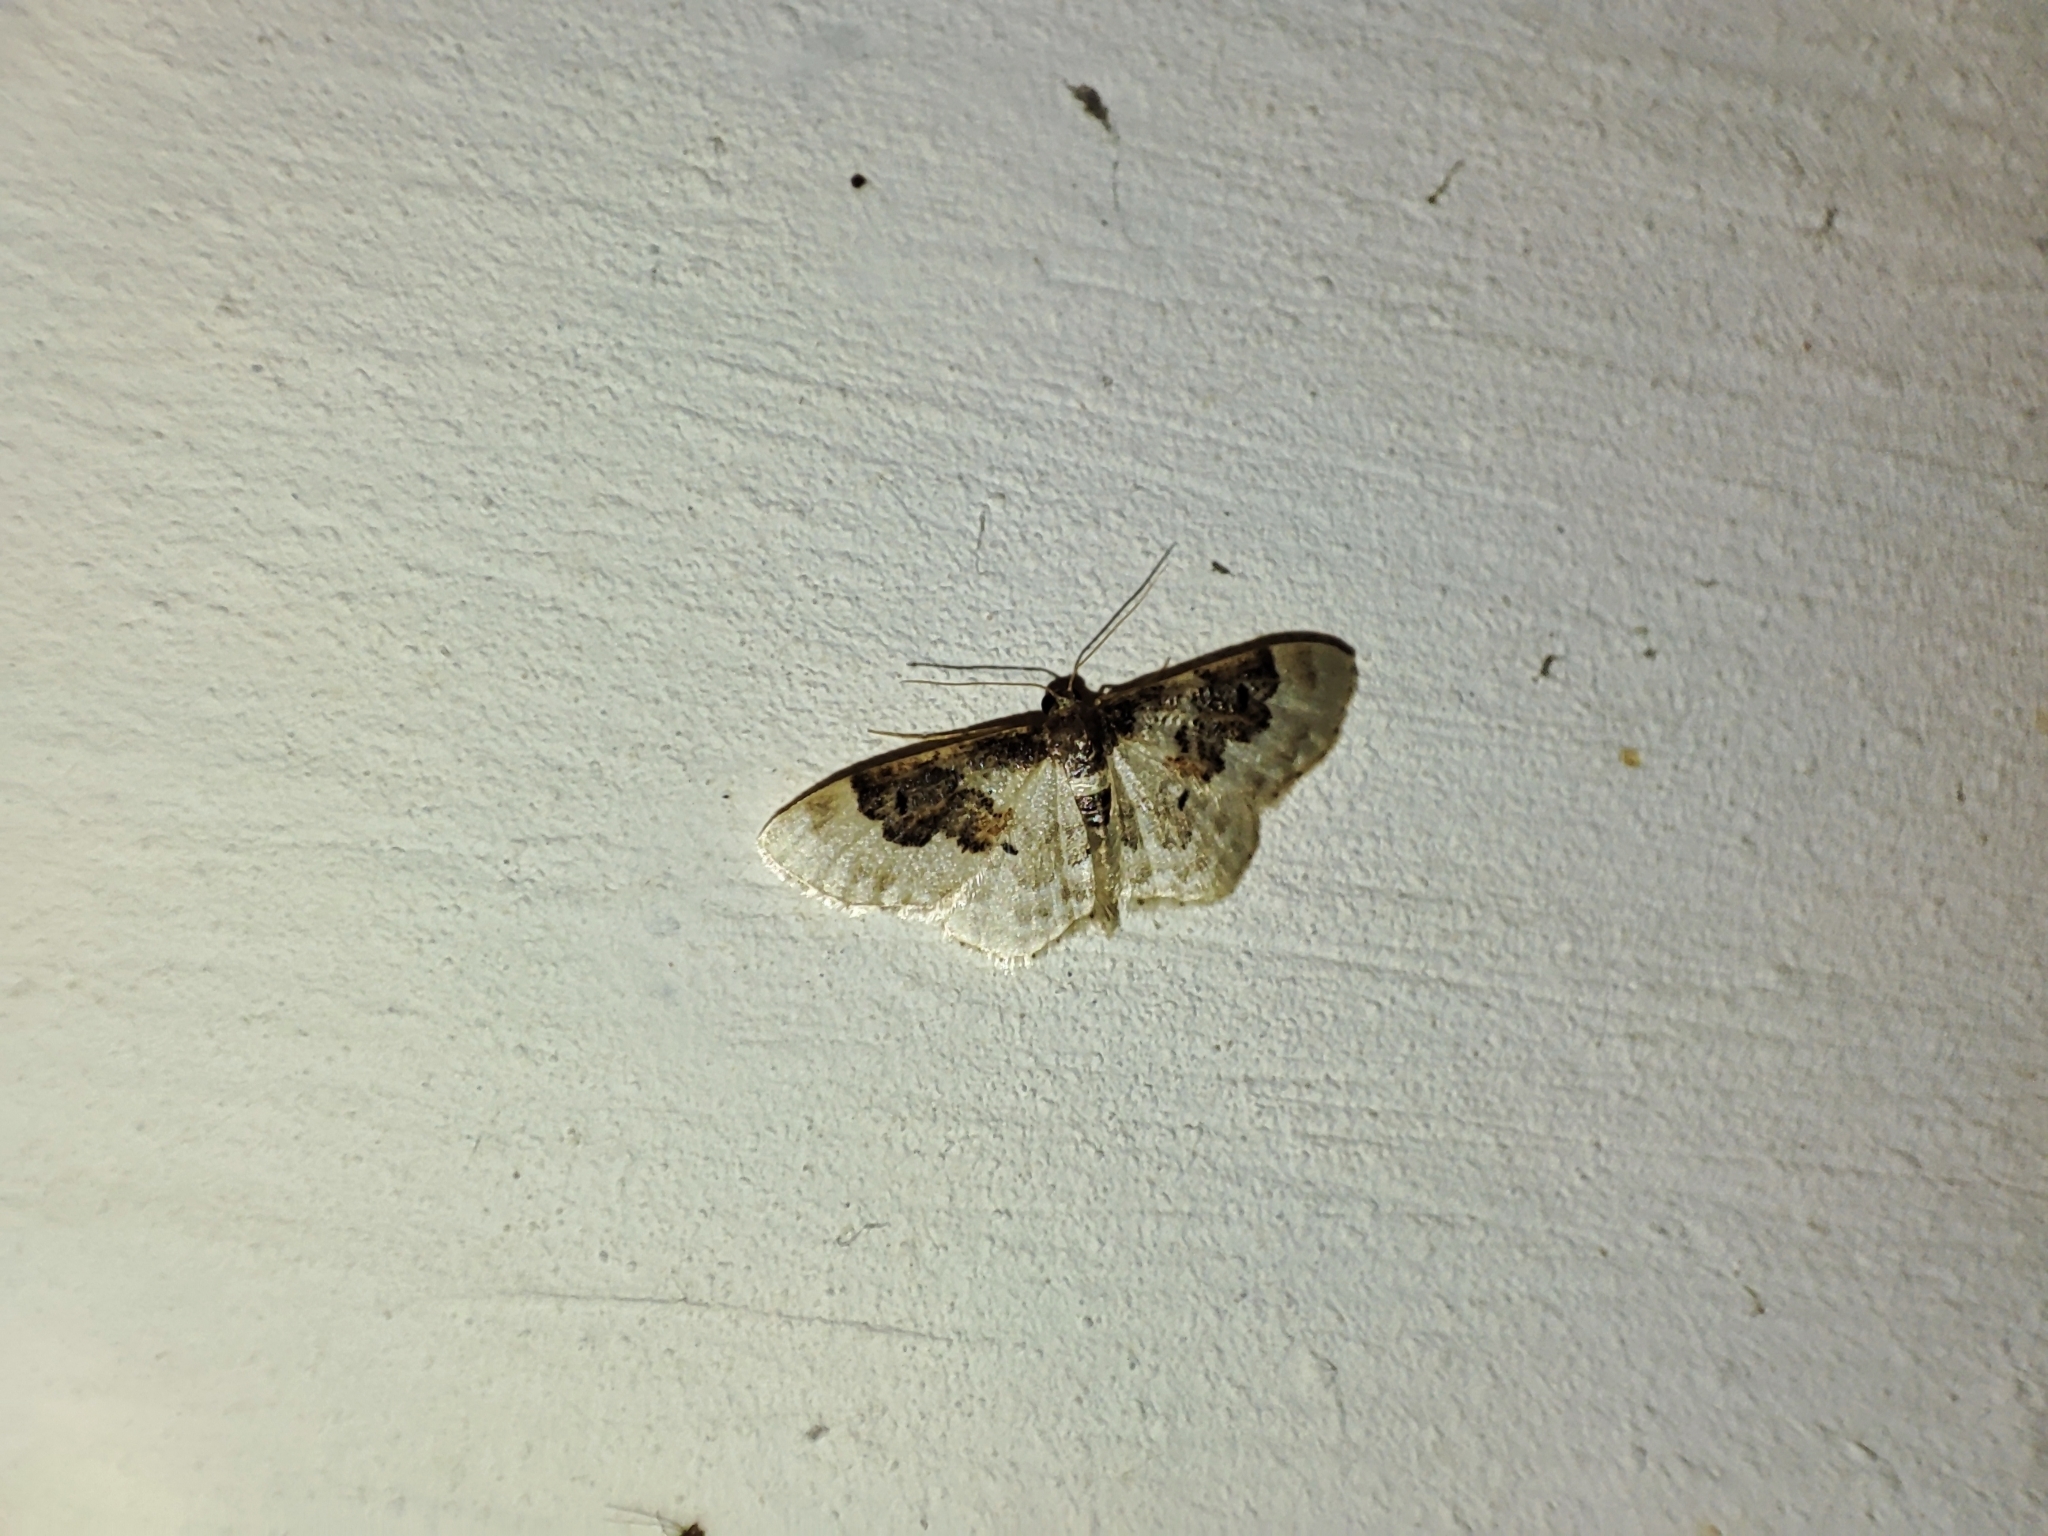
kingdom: Animalia
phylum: Arthropoda
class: Insecta
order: Lepidoptera
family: Geometridae
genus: Idaea
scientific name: Idaea rusticata
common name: Least carpet
